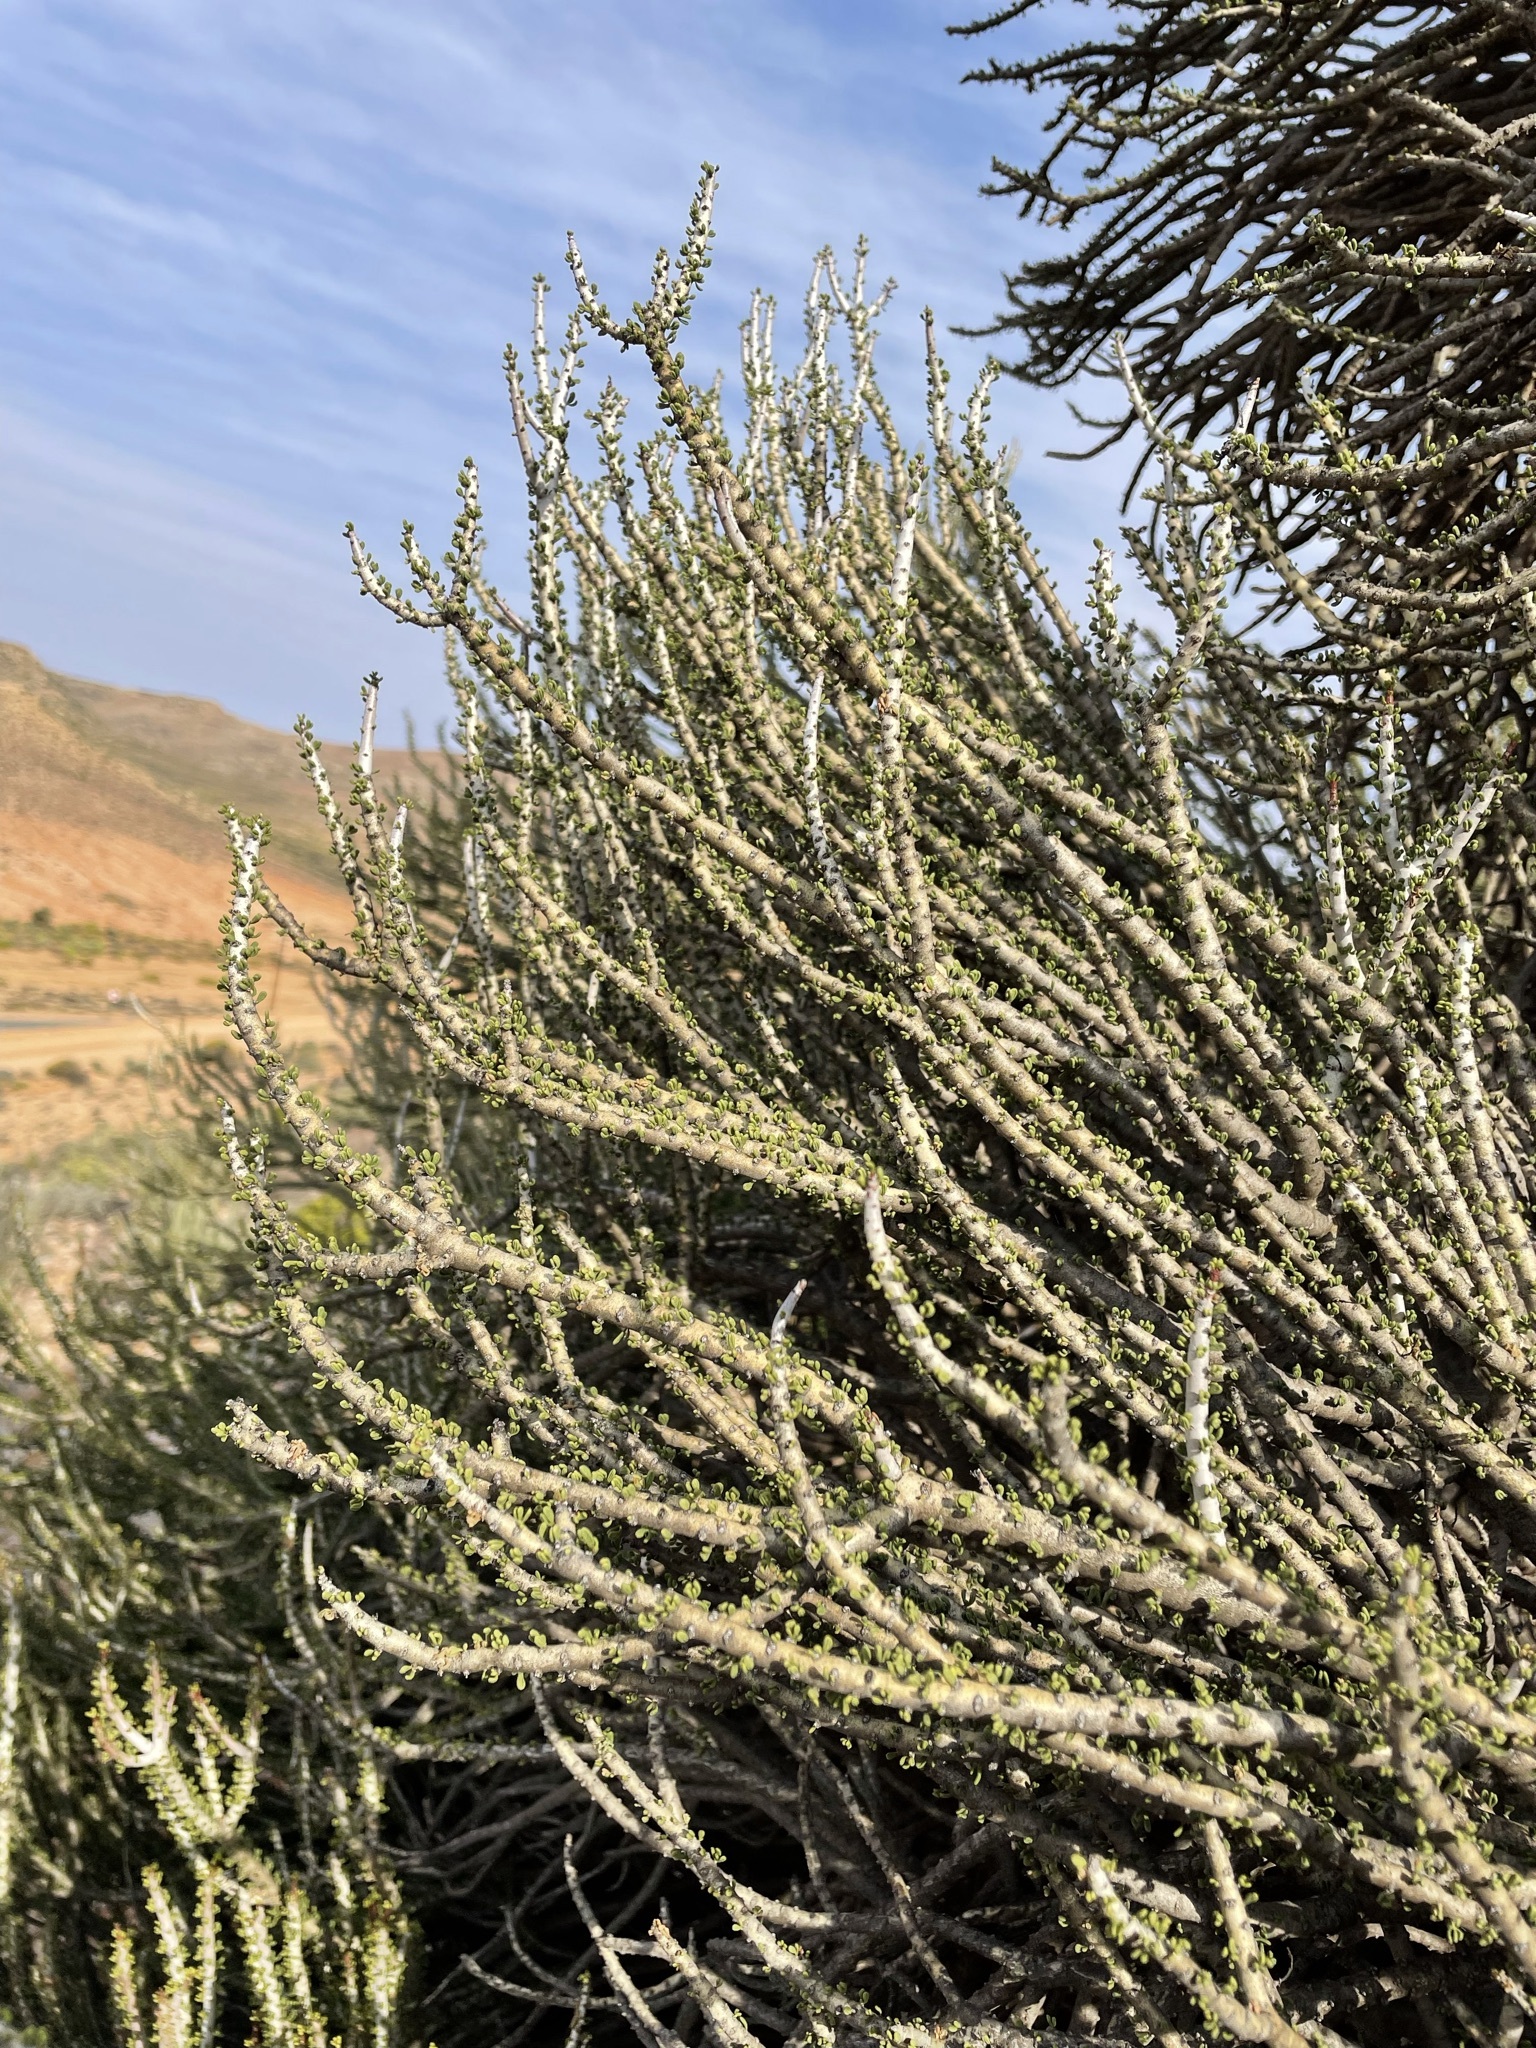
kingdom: Plantae
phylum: Tracheophyta
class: Magnoliopsida
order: Caryophyllales
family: Didiereaceae
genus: Portulacaria
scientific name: Portulacaria namaquensis
